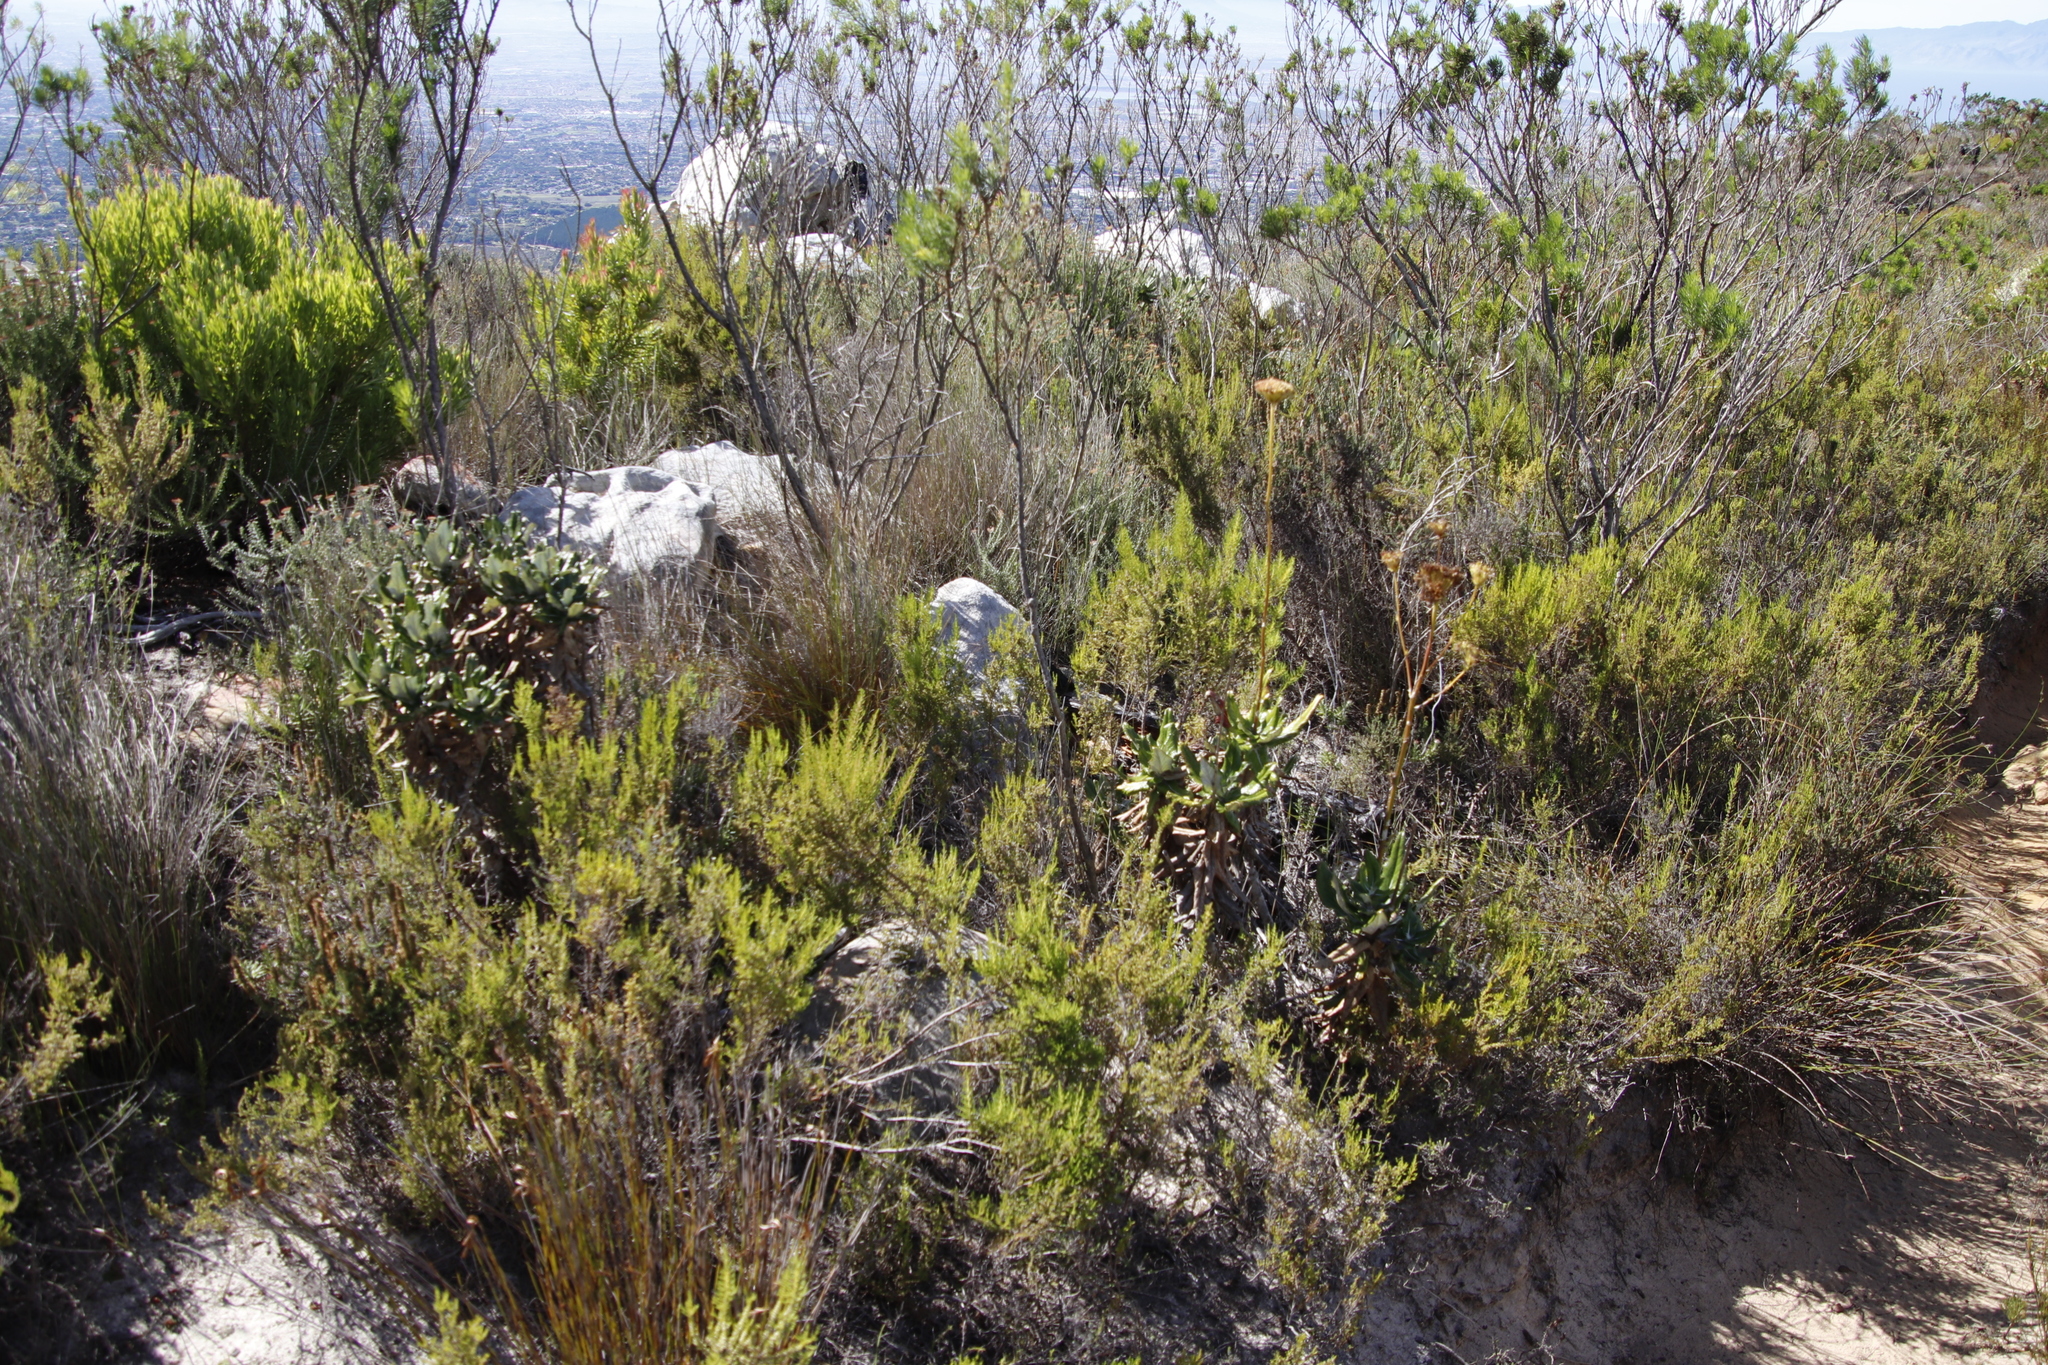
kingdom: Plantae
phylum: Tracheophyta
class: Magnoliopsida
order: Apiales
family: Apiaceae
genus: Hermas
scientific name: Hermas villosa
